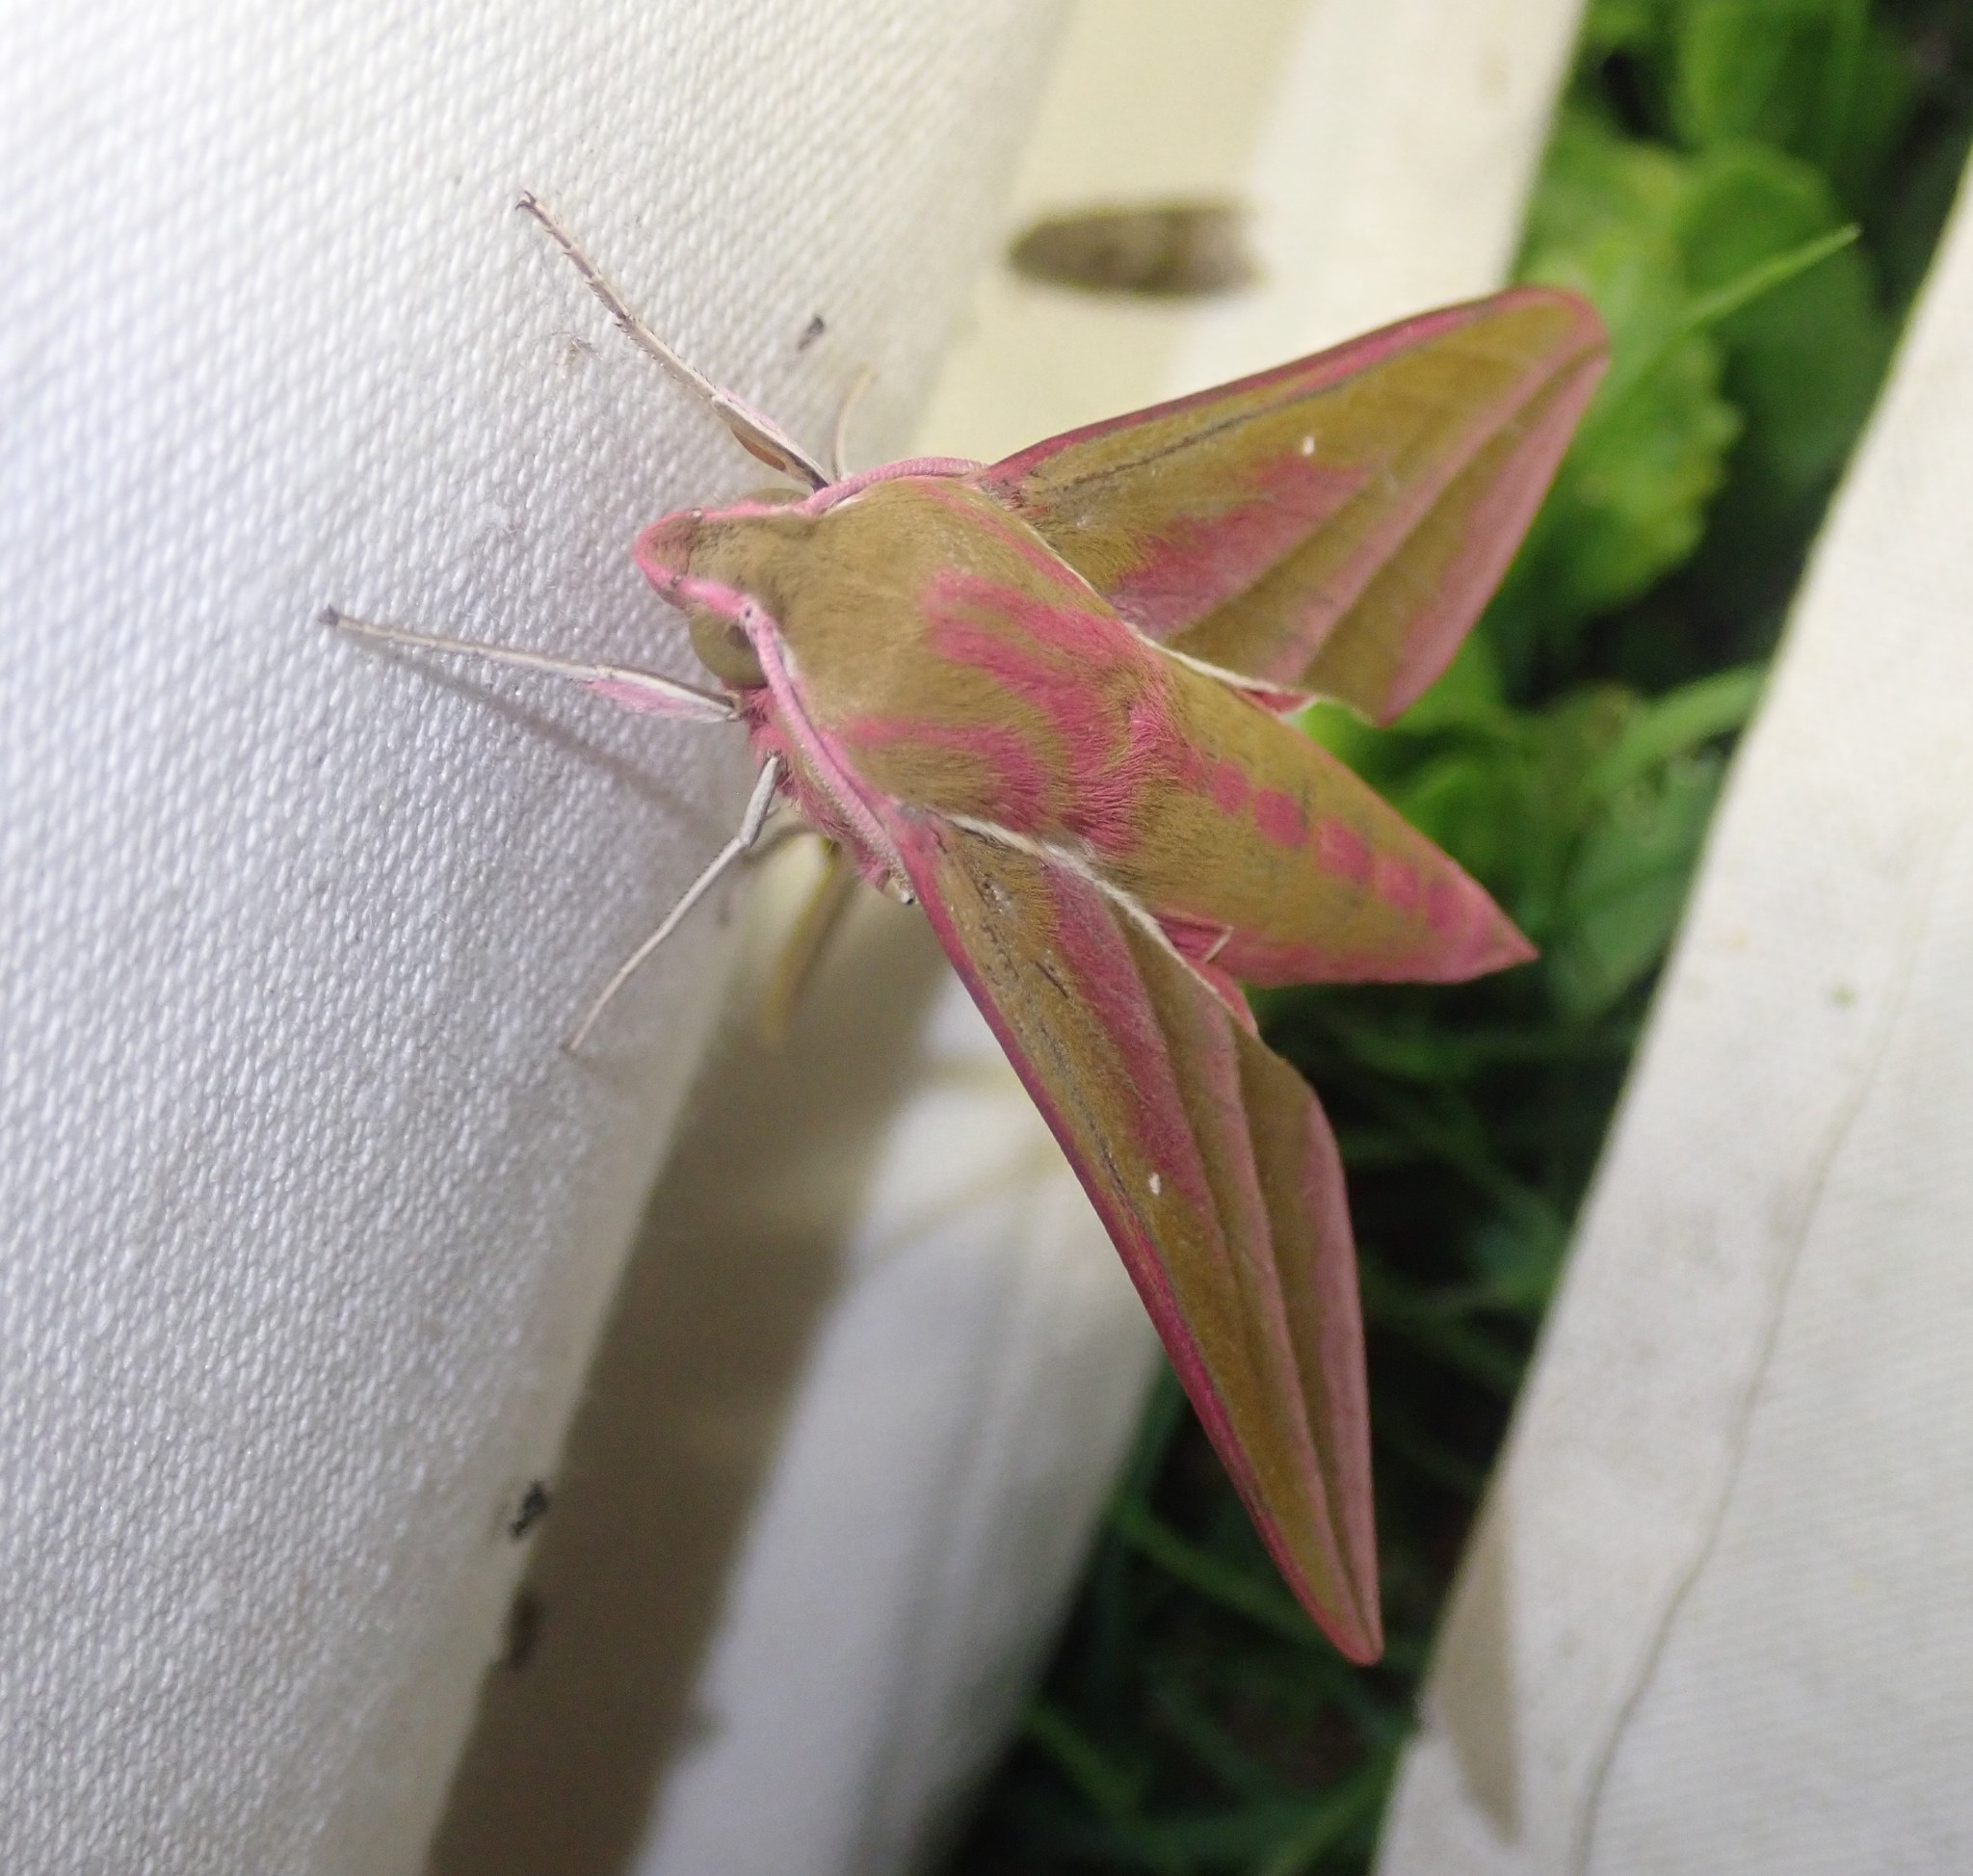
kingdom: Animalia
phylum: Arthropoda
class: Insecta
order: Lepidoptera
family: Sphingidae
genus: Deilephila
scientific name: Deilephila elpenor
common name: Elephant hawk-moth
